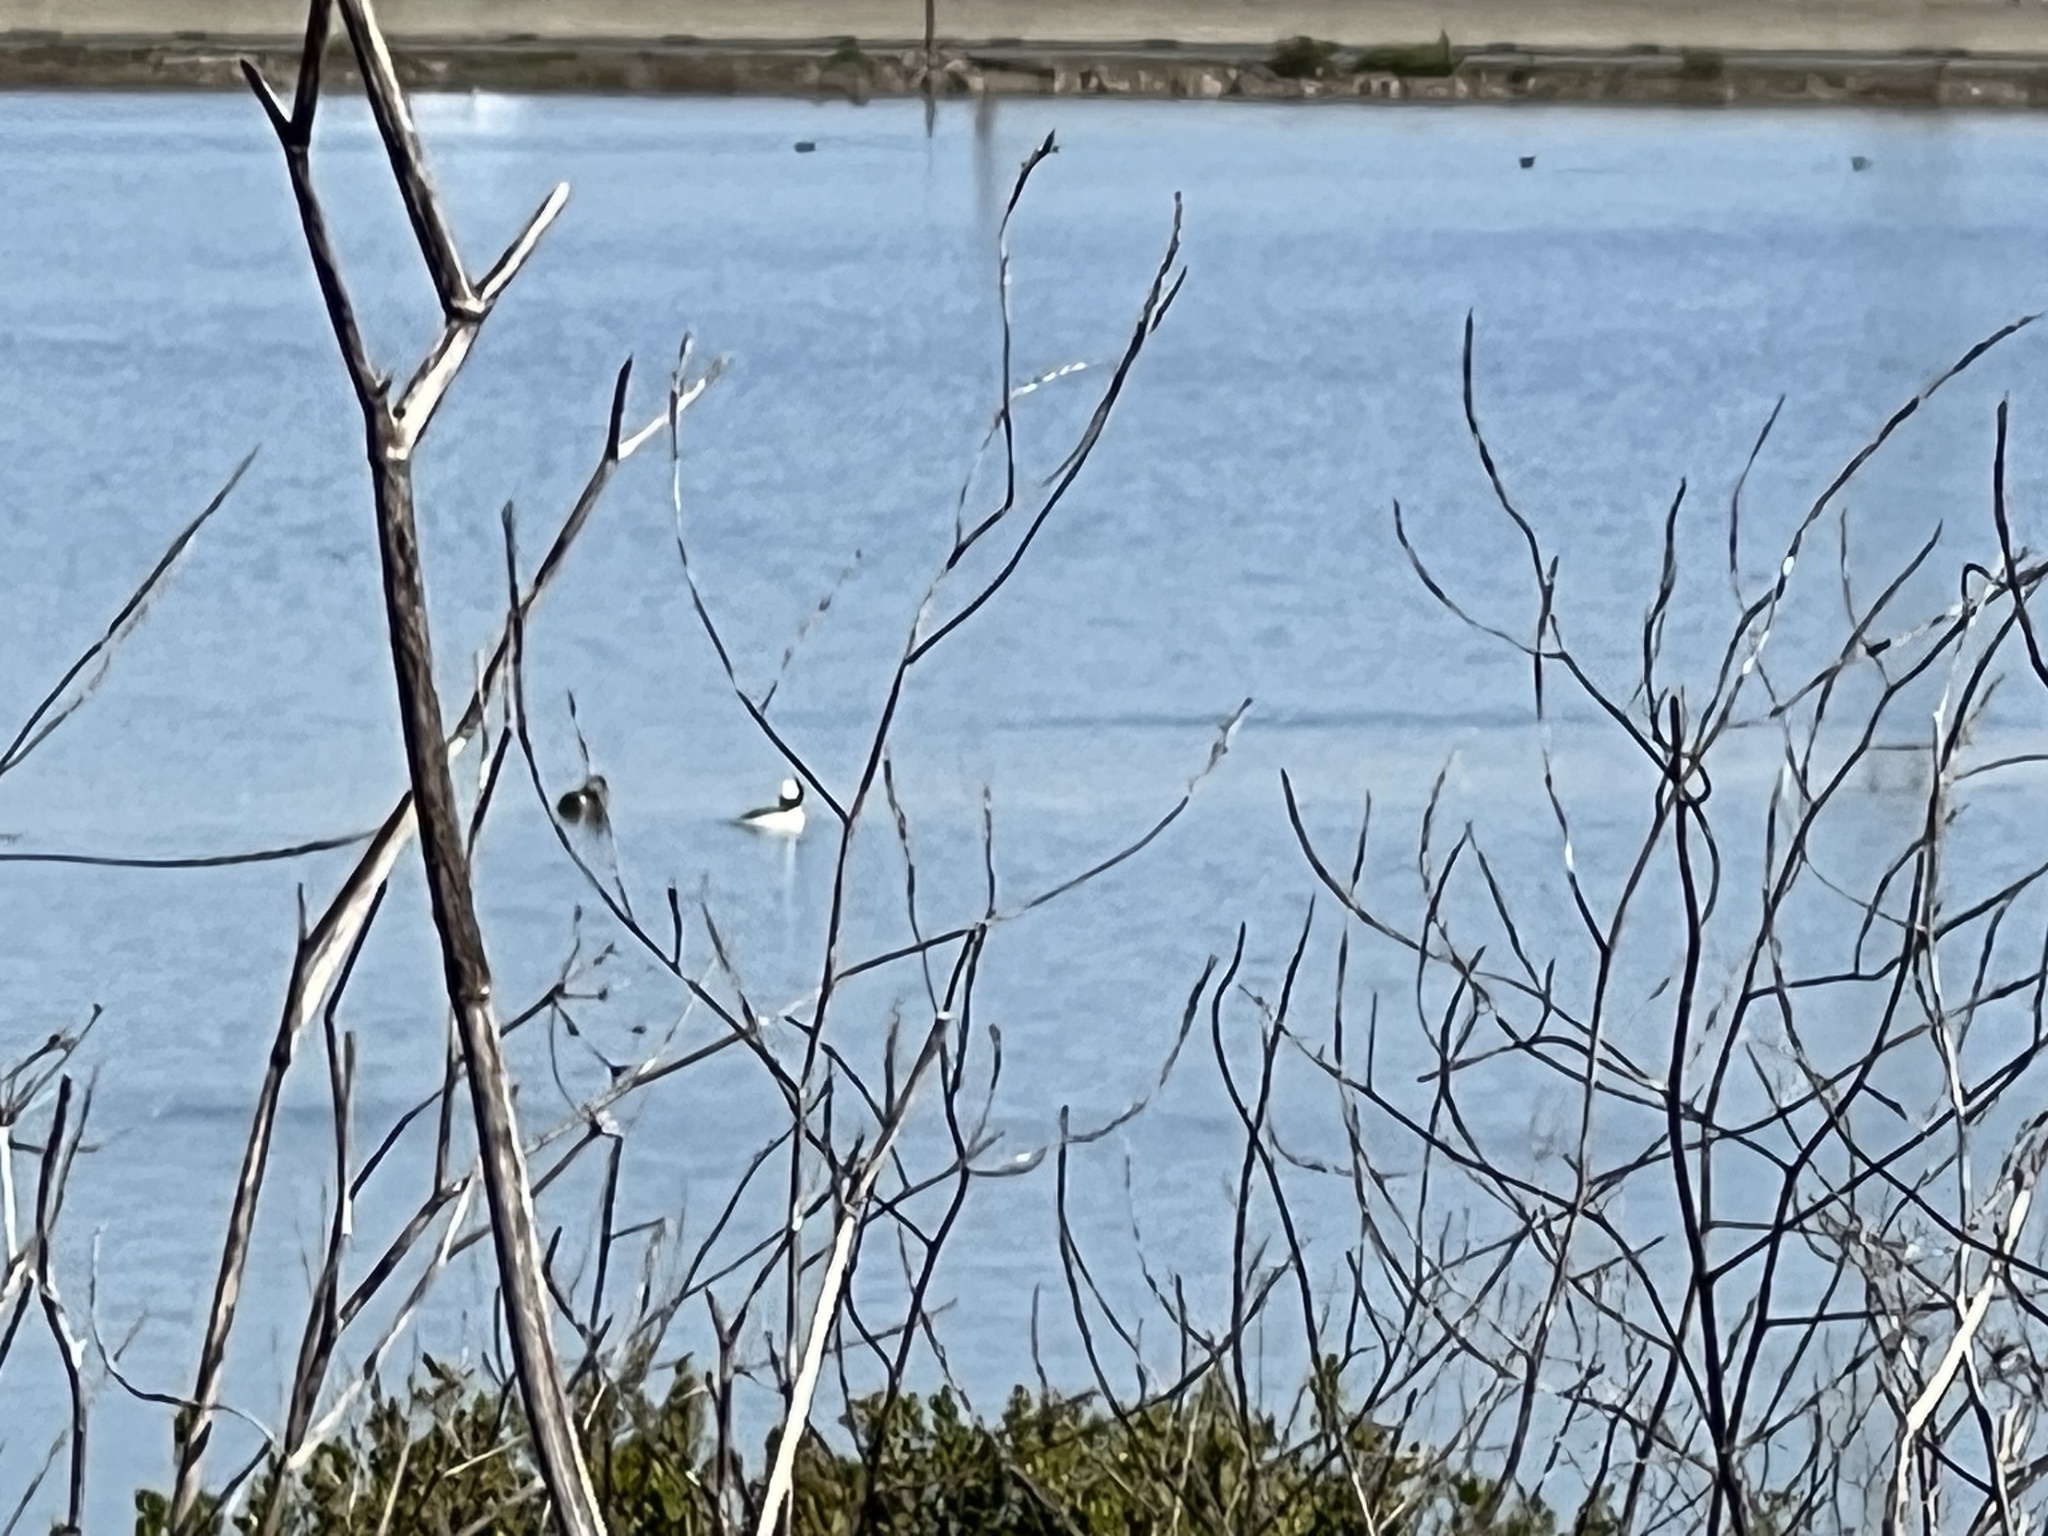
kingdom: Animalia
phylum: Chordata
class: Aves
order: Anseriformes
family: Anatidae
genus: Bucephala
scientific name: Bucephala albeola
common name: Bufflehead
